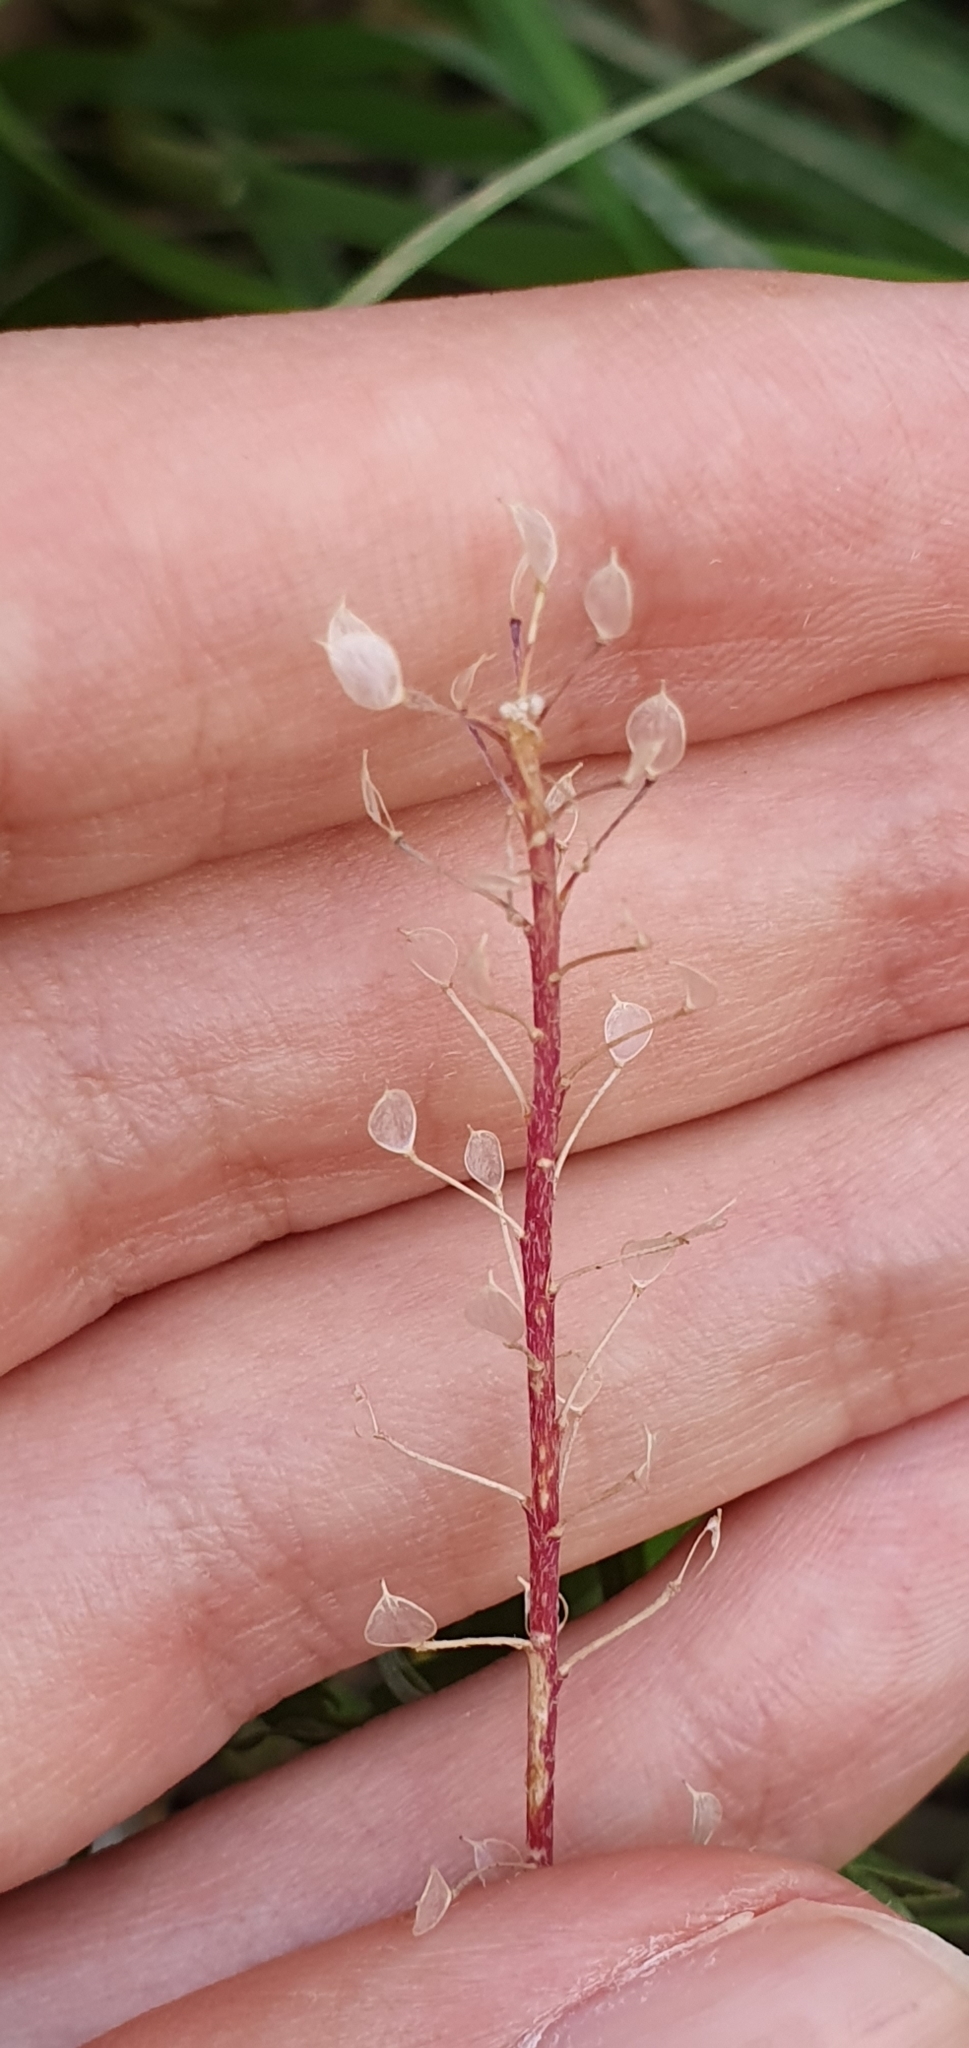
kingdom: Plantae
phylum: Tracheophyta
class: Magnoliopsida
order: Brassicales
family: Brassicaceae
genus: Lobularia
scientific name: Lobularia maritima
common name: Sweet alison
